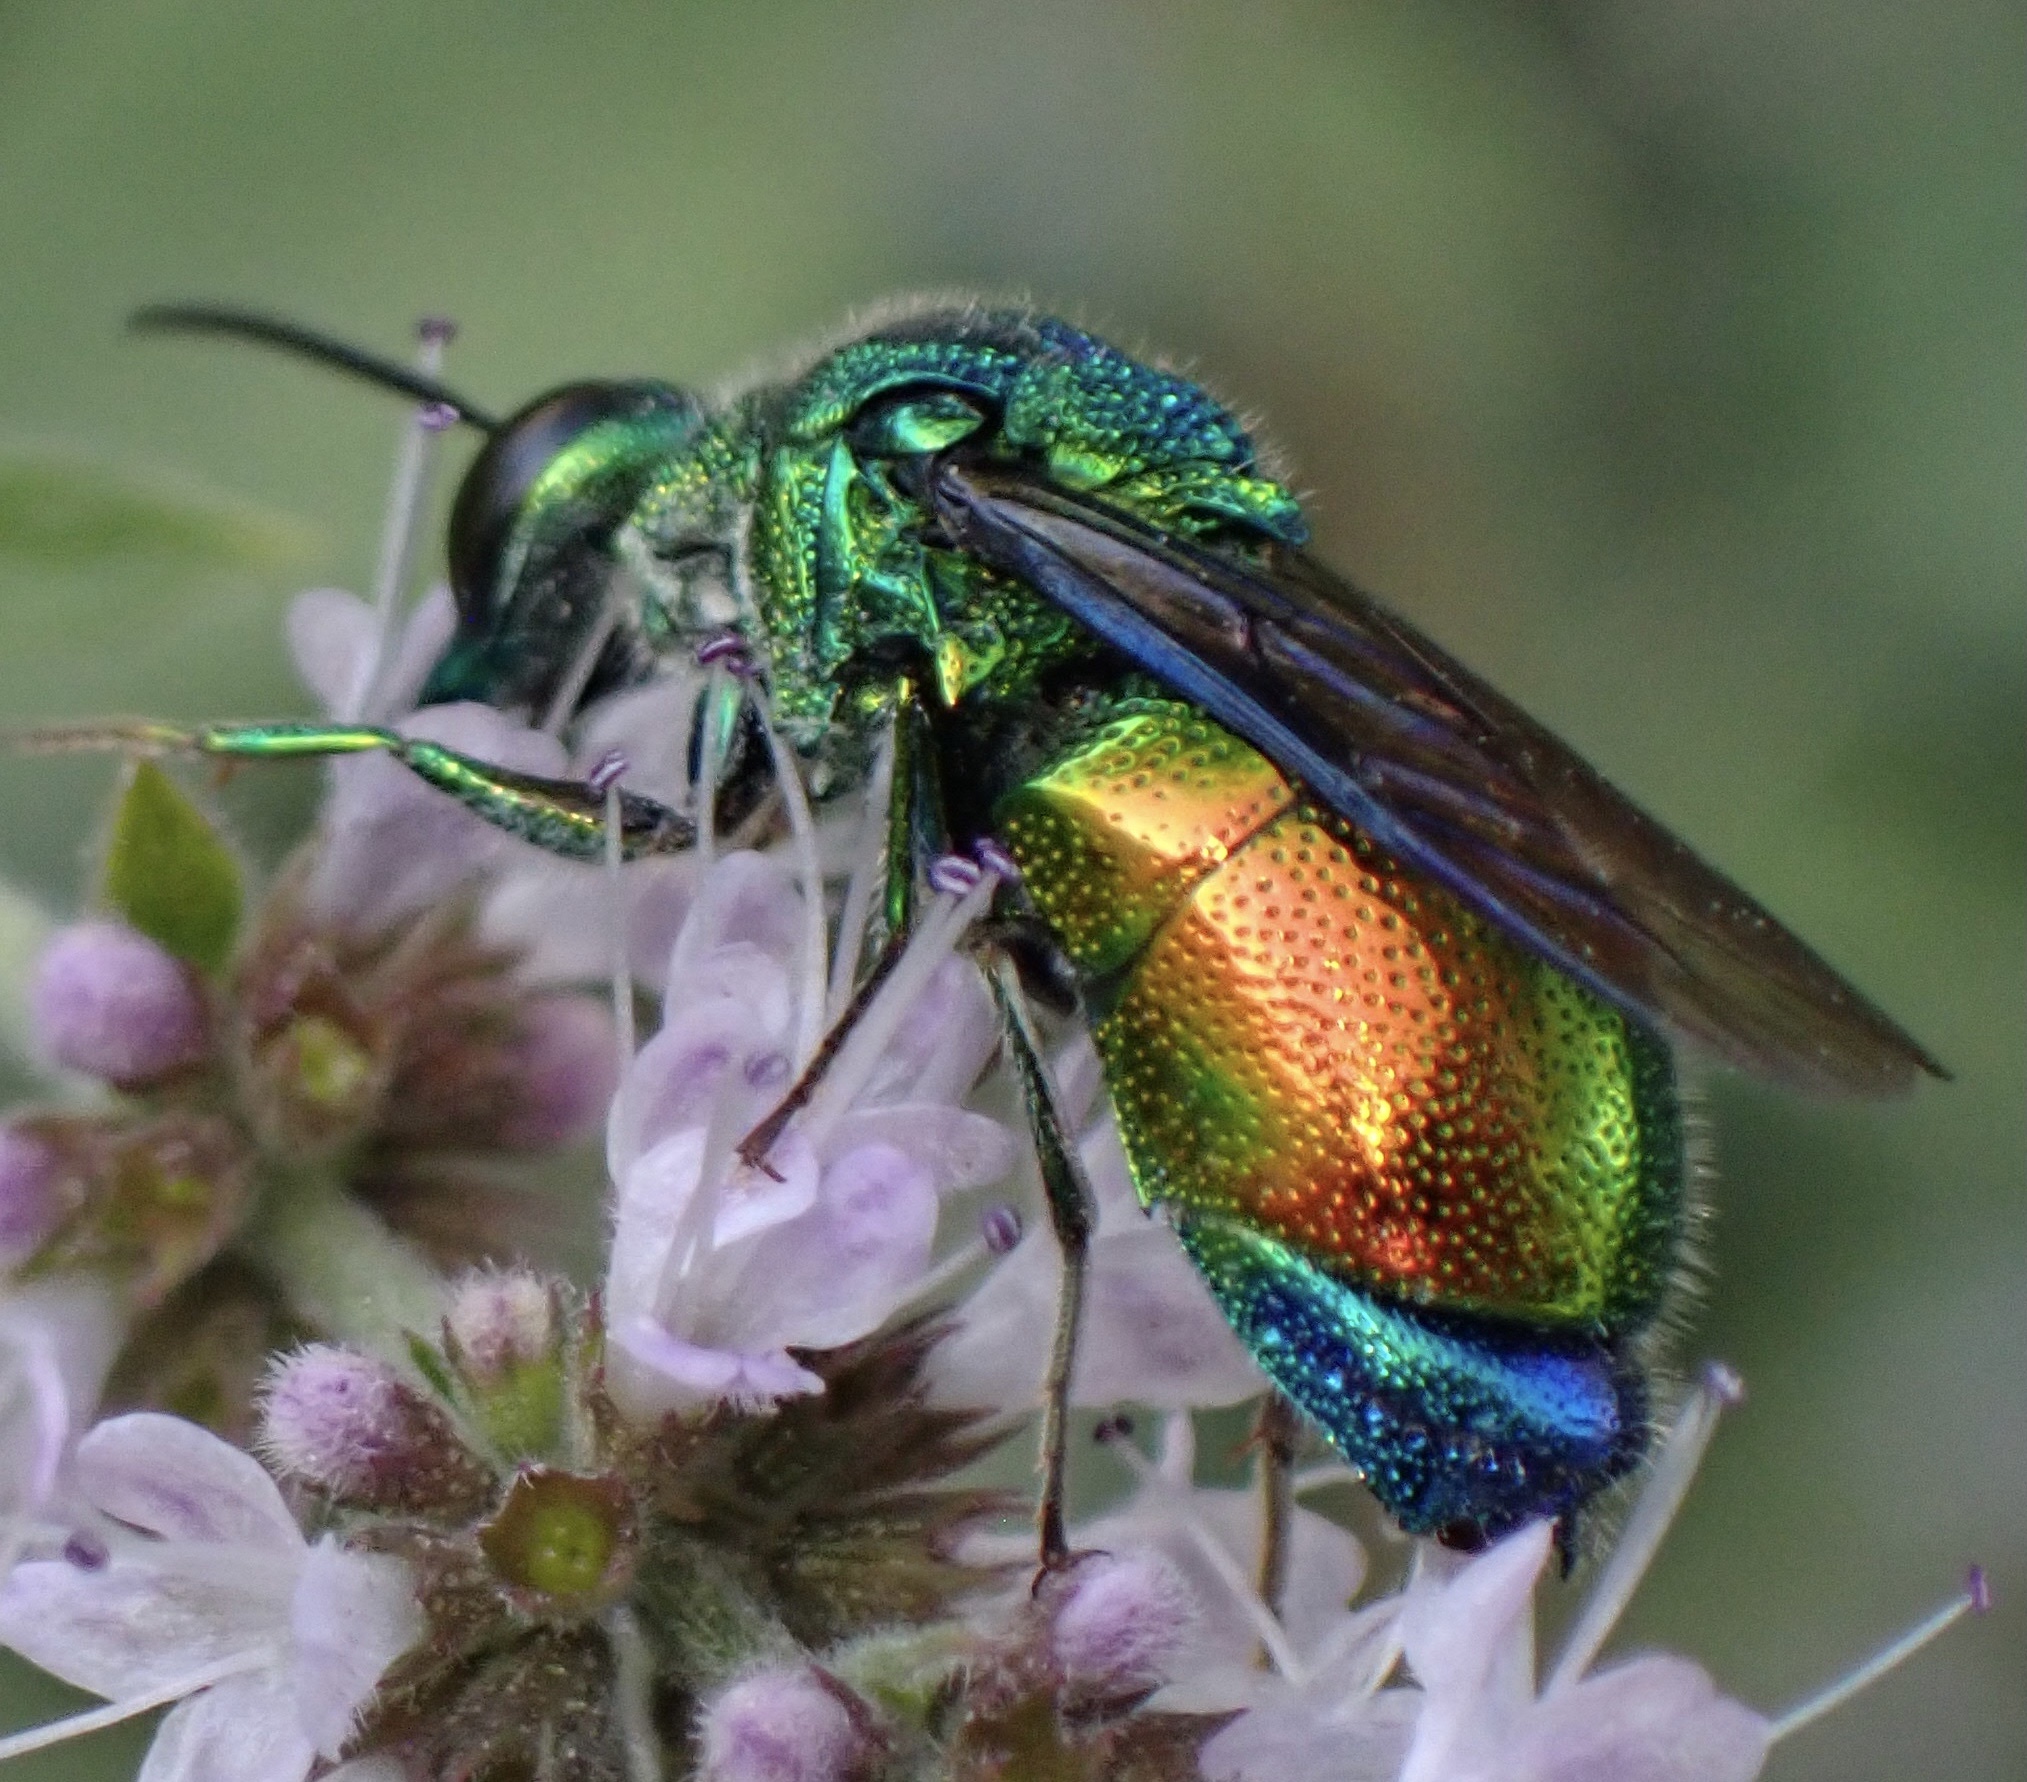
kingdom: Animalia
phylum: Arthropoda
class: Insecta
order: Hymenoptera
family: Chrysididae
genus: Stilbum
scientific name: Stilbum cyanurum
